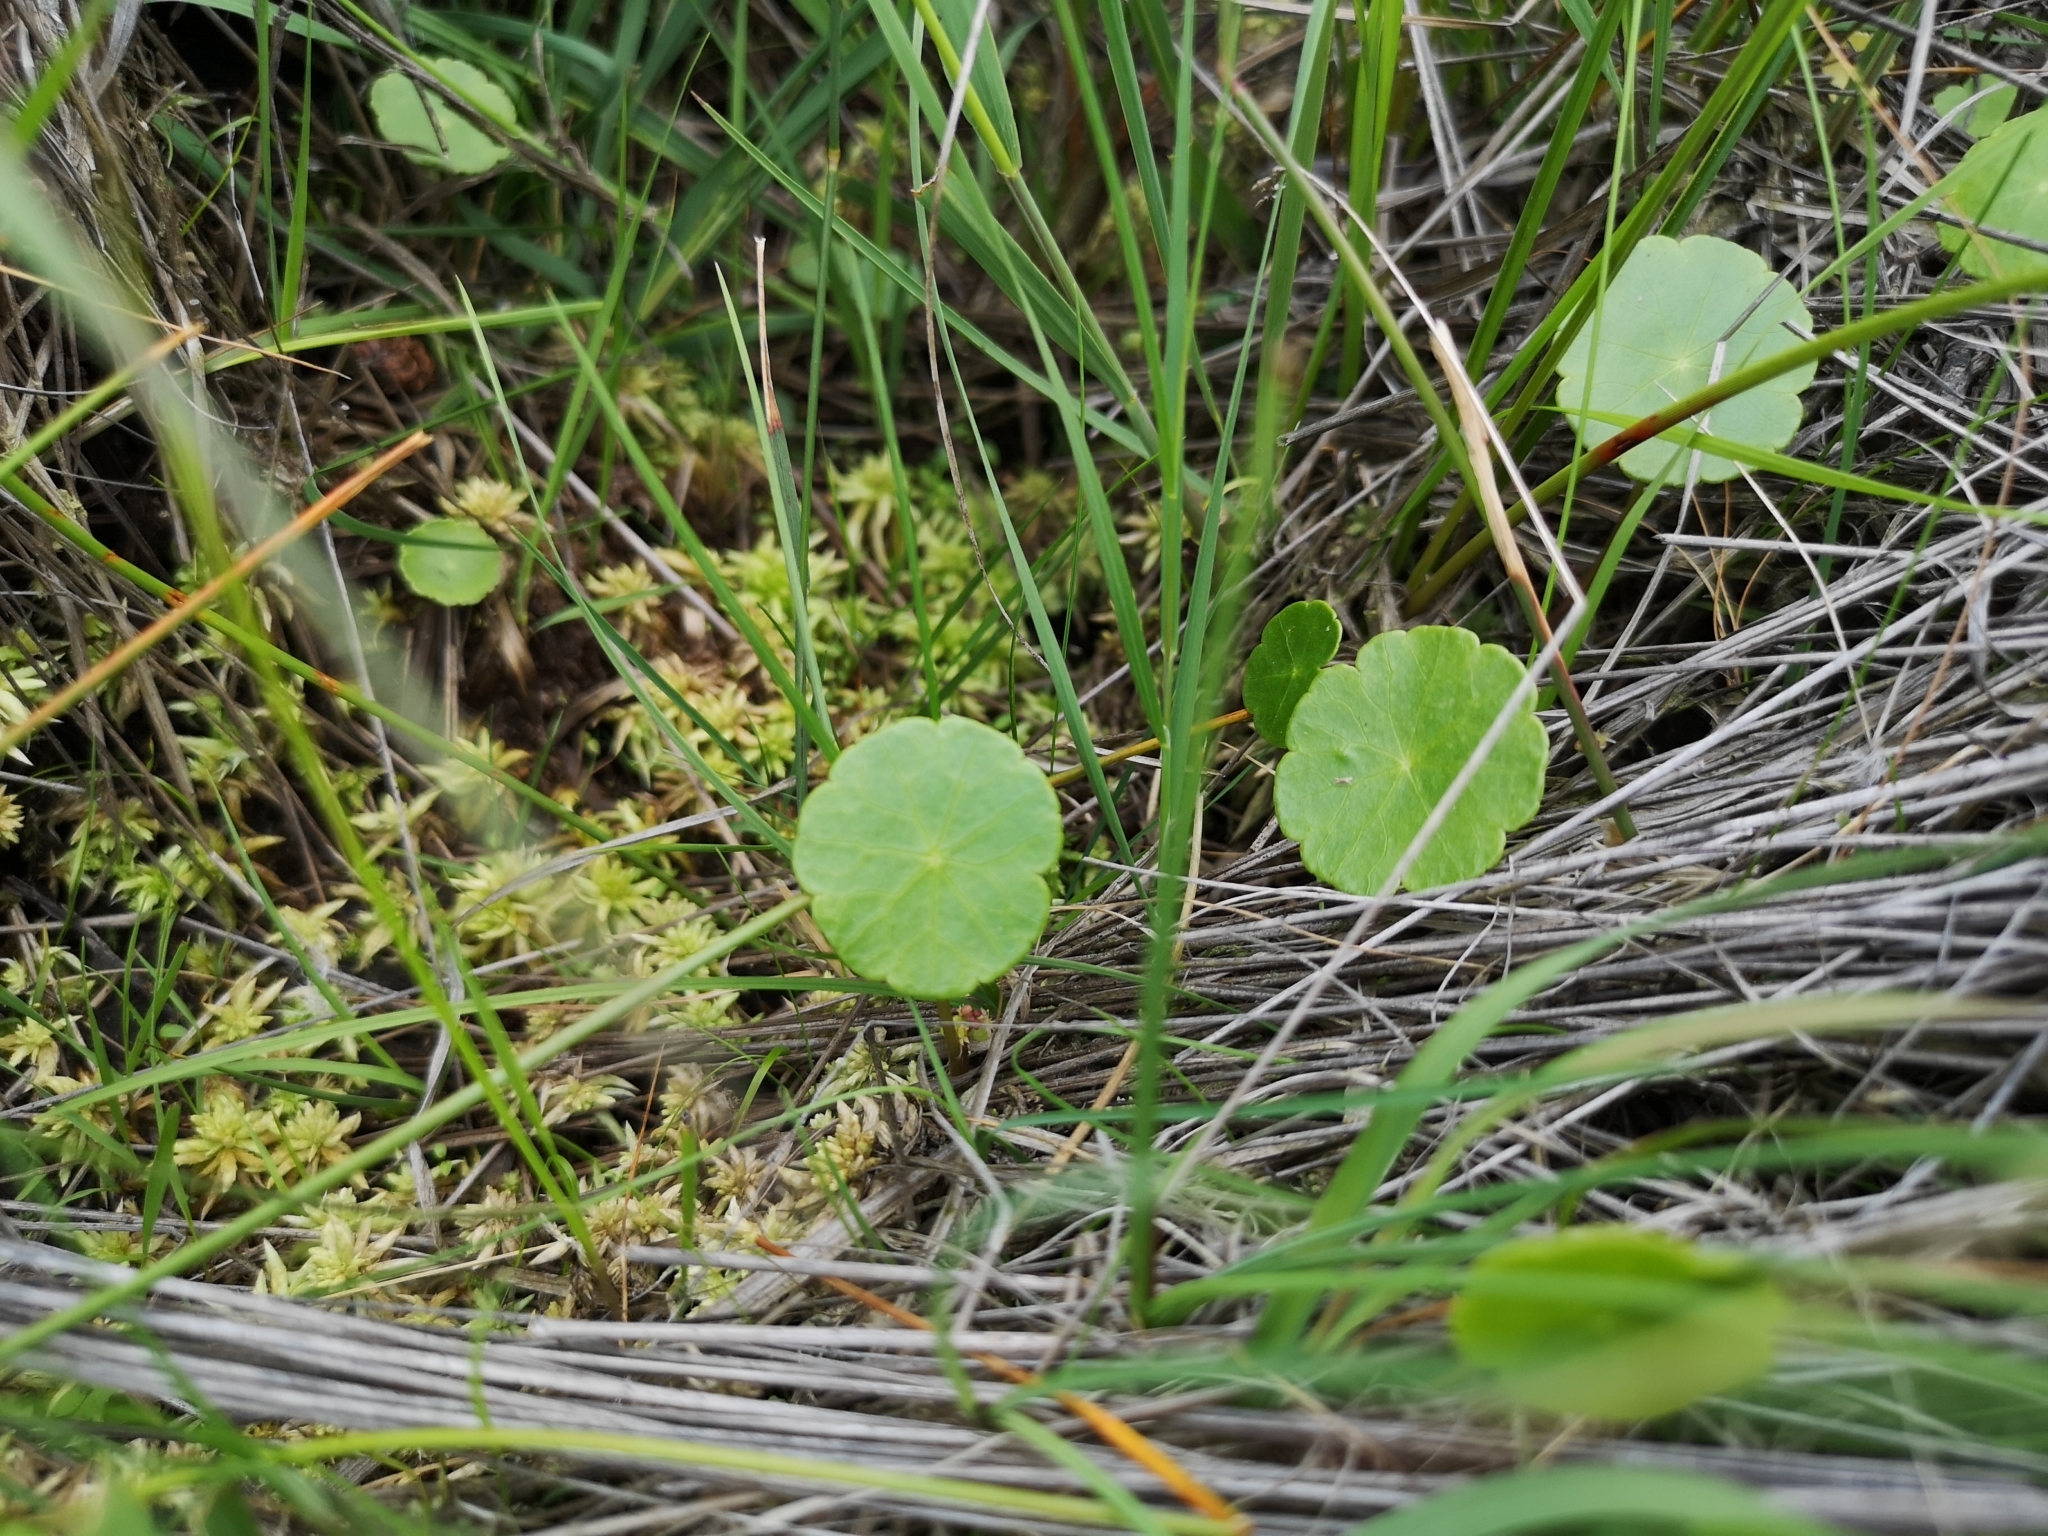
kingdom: Plantae
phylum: Tracheophyta
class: Magnoliopsida
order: Apiales
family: Araliaceae
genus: Hydrocotyle
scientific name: Hydrocotyle vulgaris
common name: Marsh pennywort
